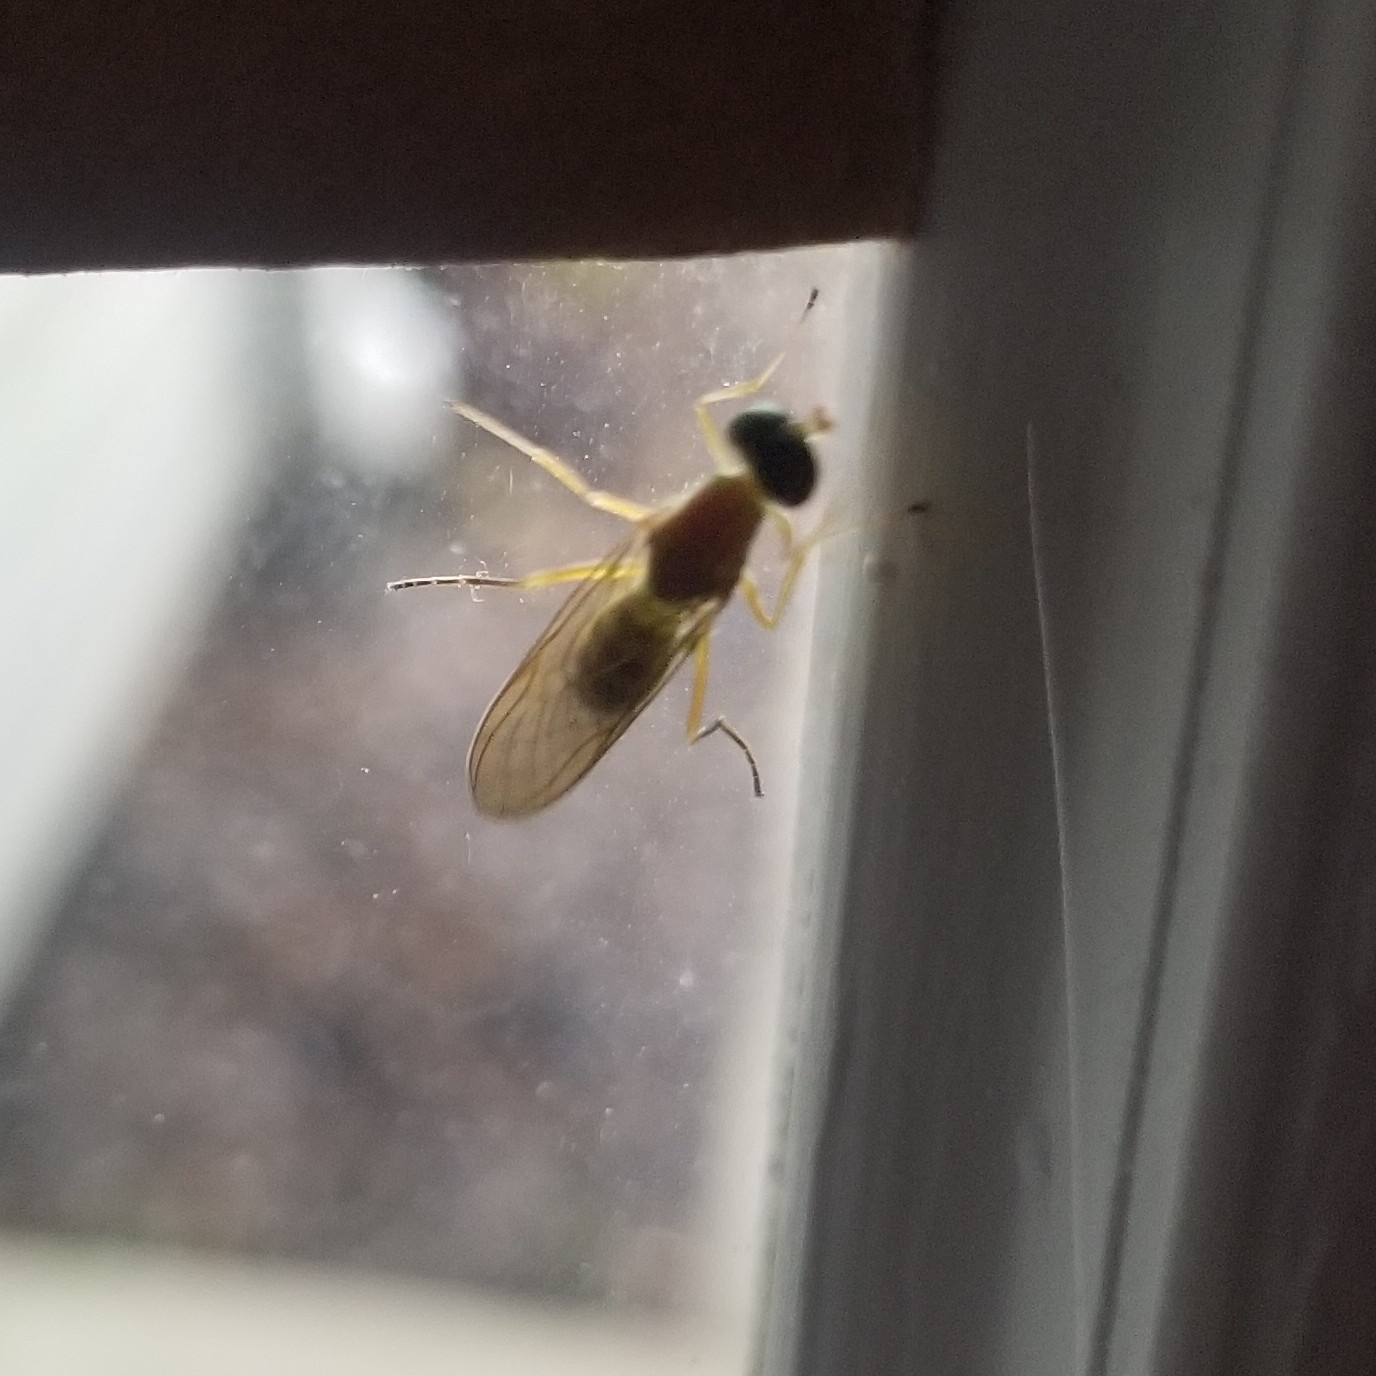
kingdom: Animalia
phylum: Arthropoda
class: Insecta
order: Diptera
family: Stratiomyidae
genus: Ptecticus
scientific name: Ptecticus trivittatus
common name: Compost fly
